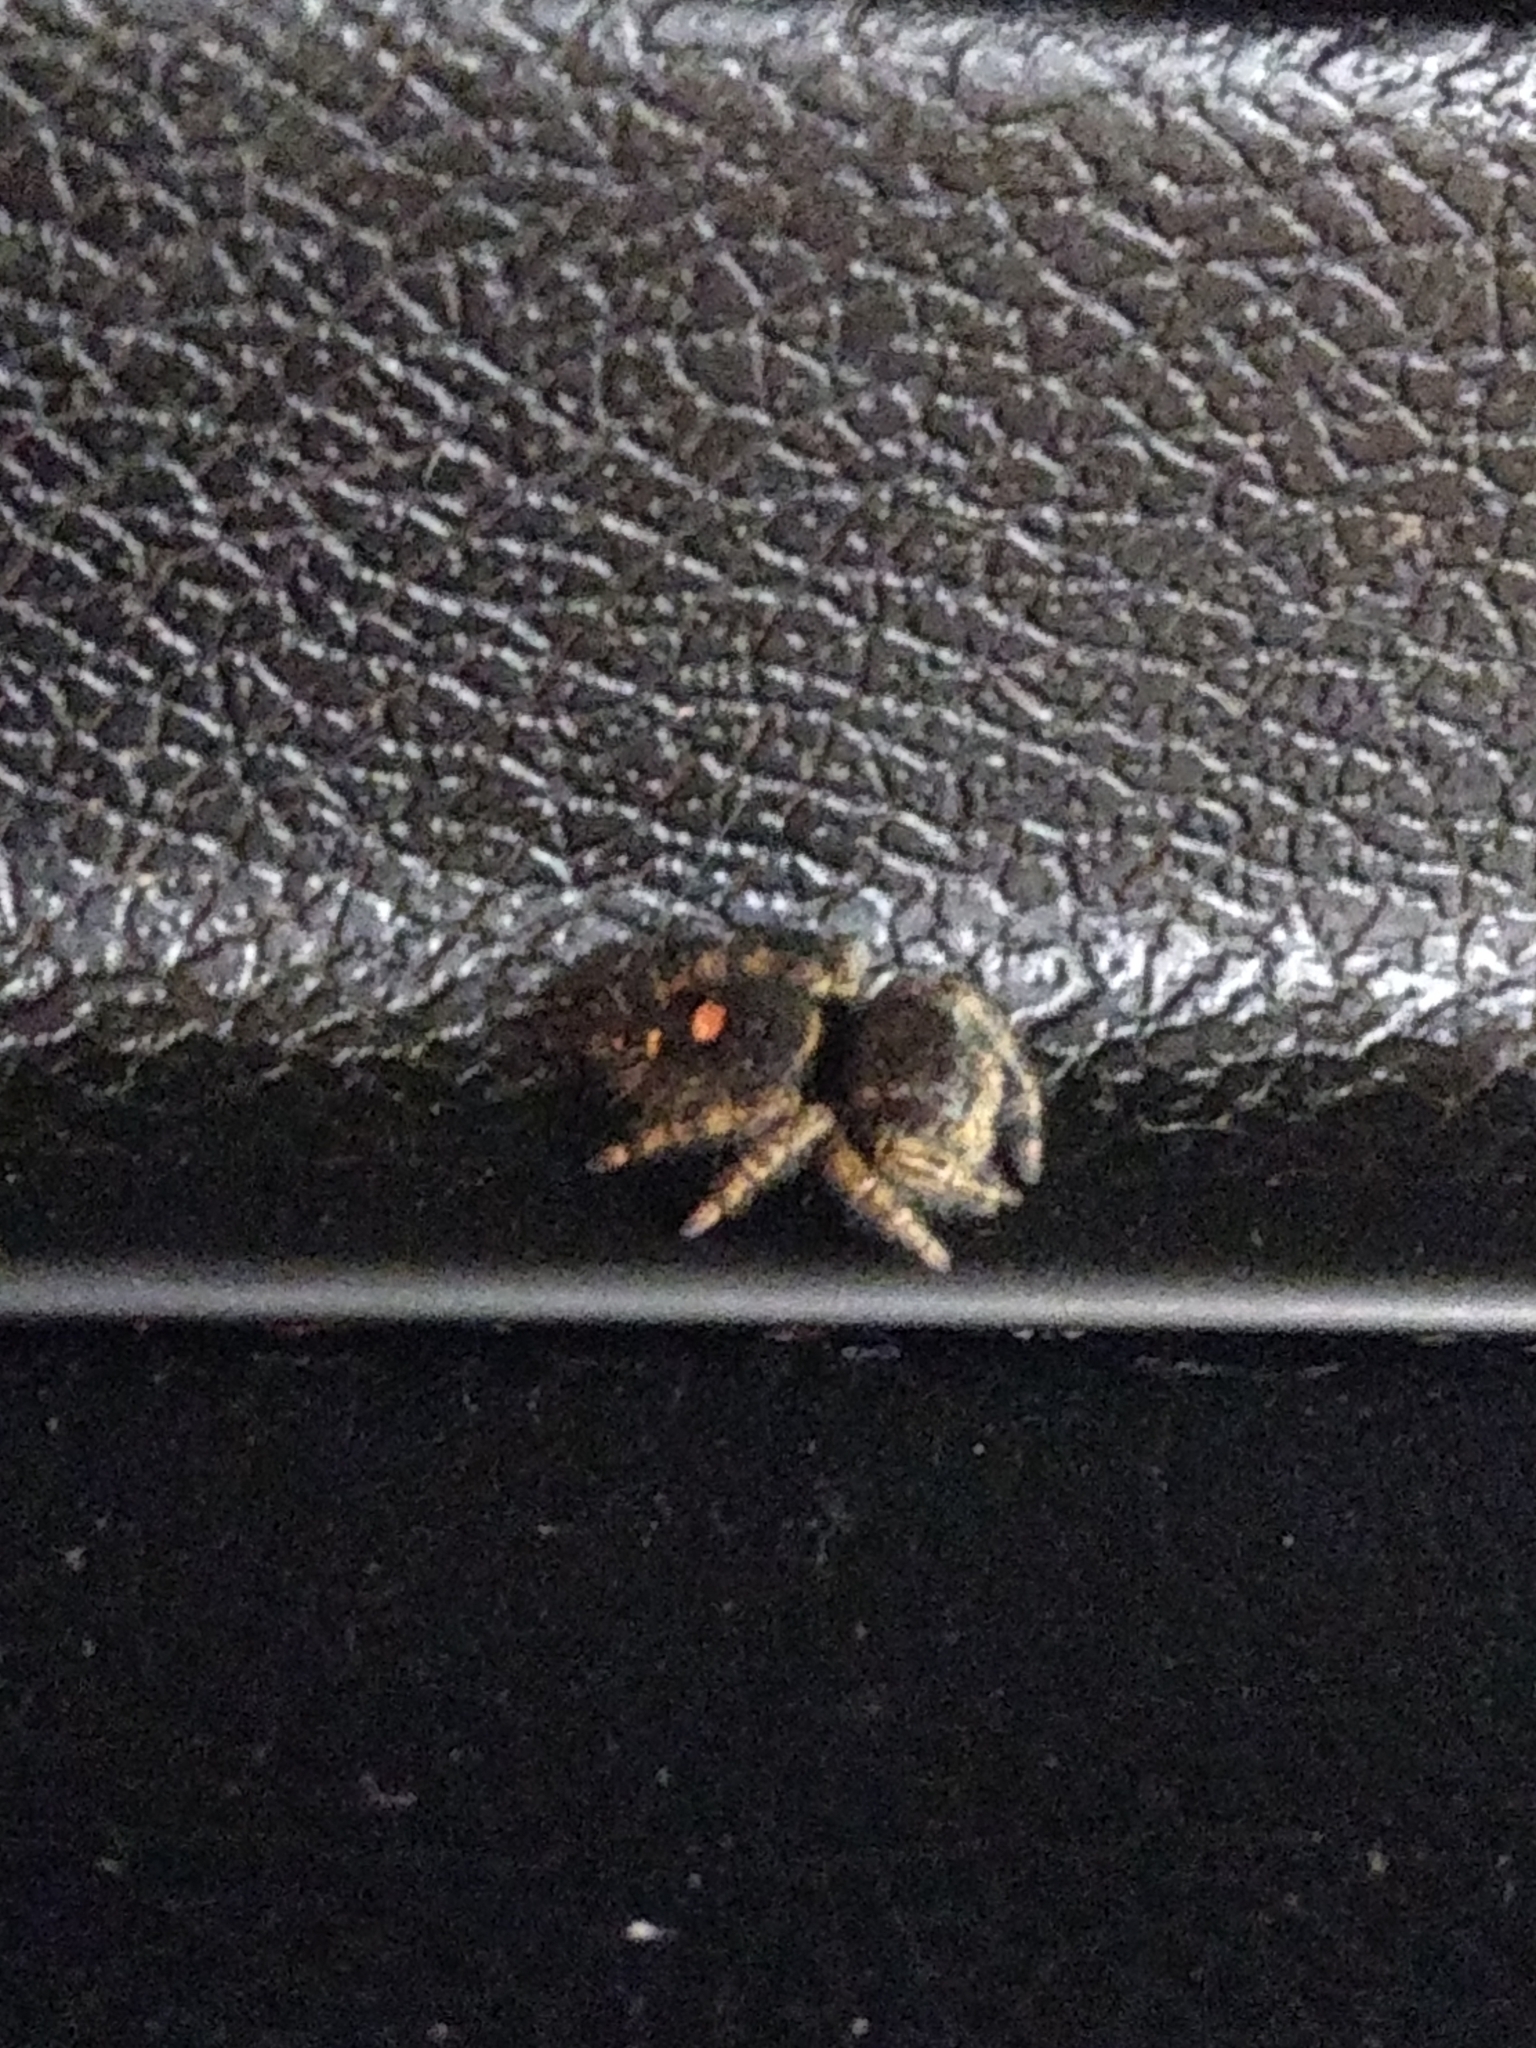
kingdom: Animalia
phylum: Arthropoda
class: Arachnida
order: Araneae
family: Salticidae
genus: Phidippus
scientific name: Phidippus audax
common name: Bold jumper
